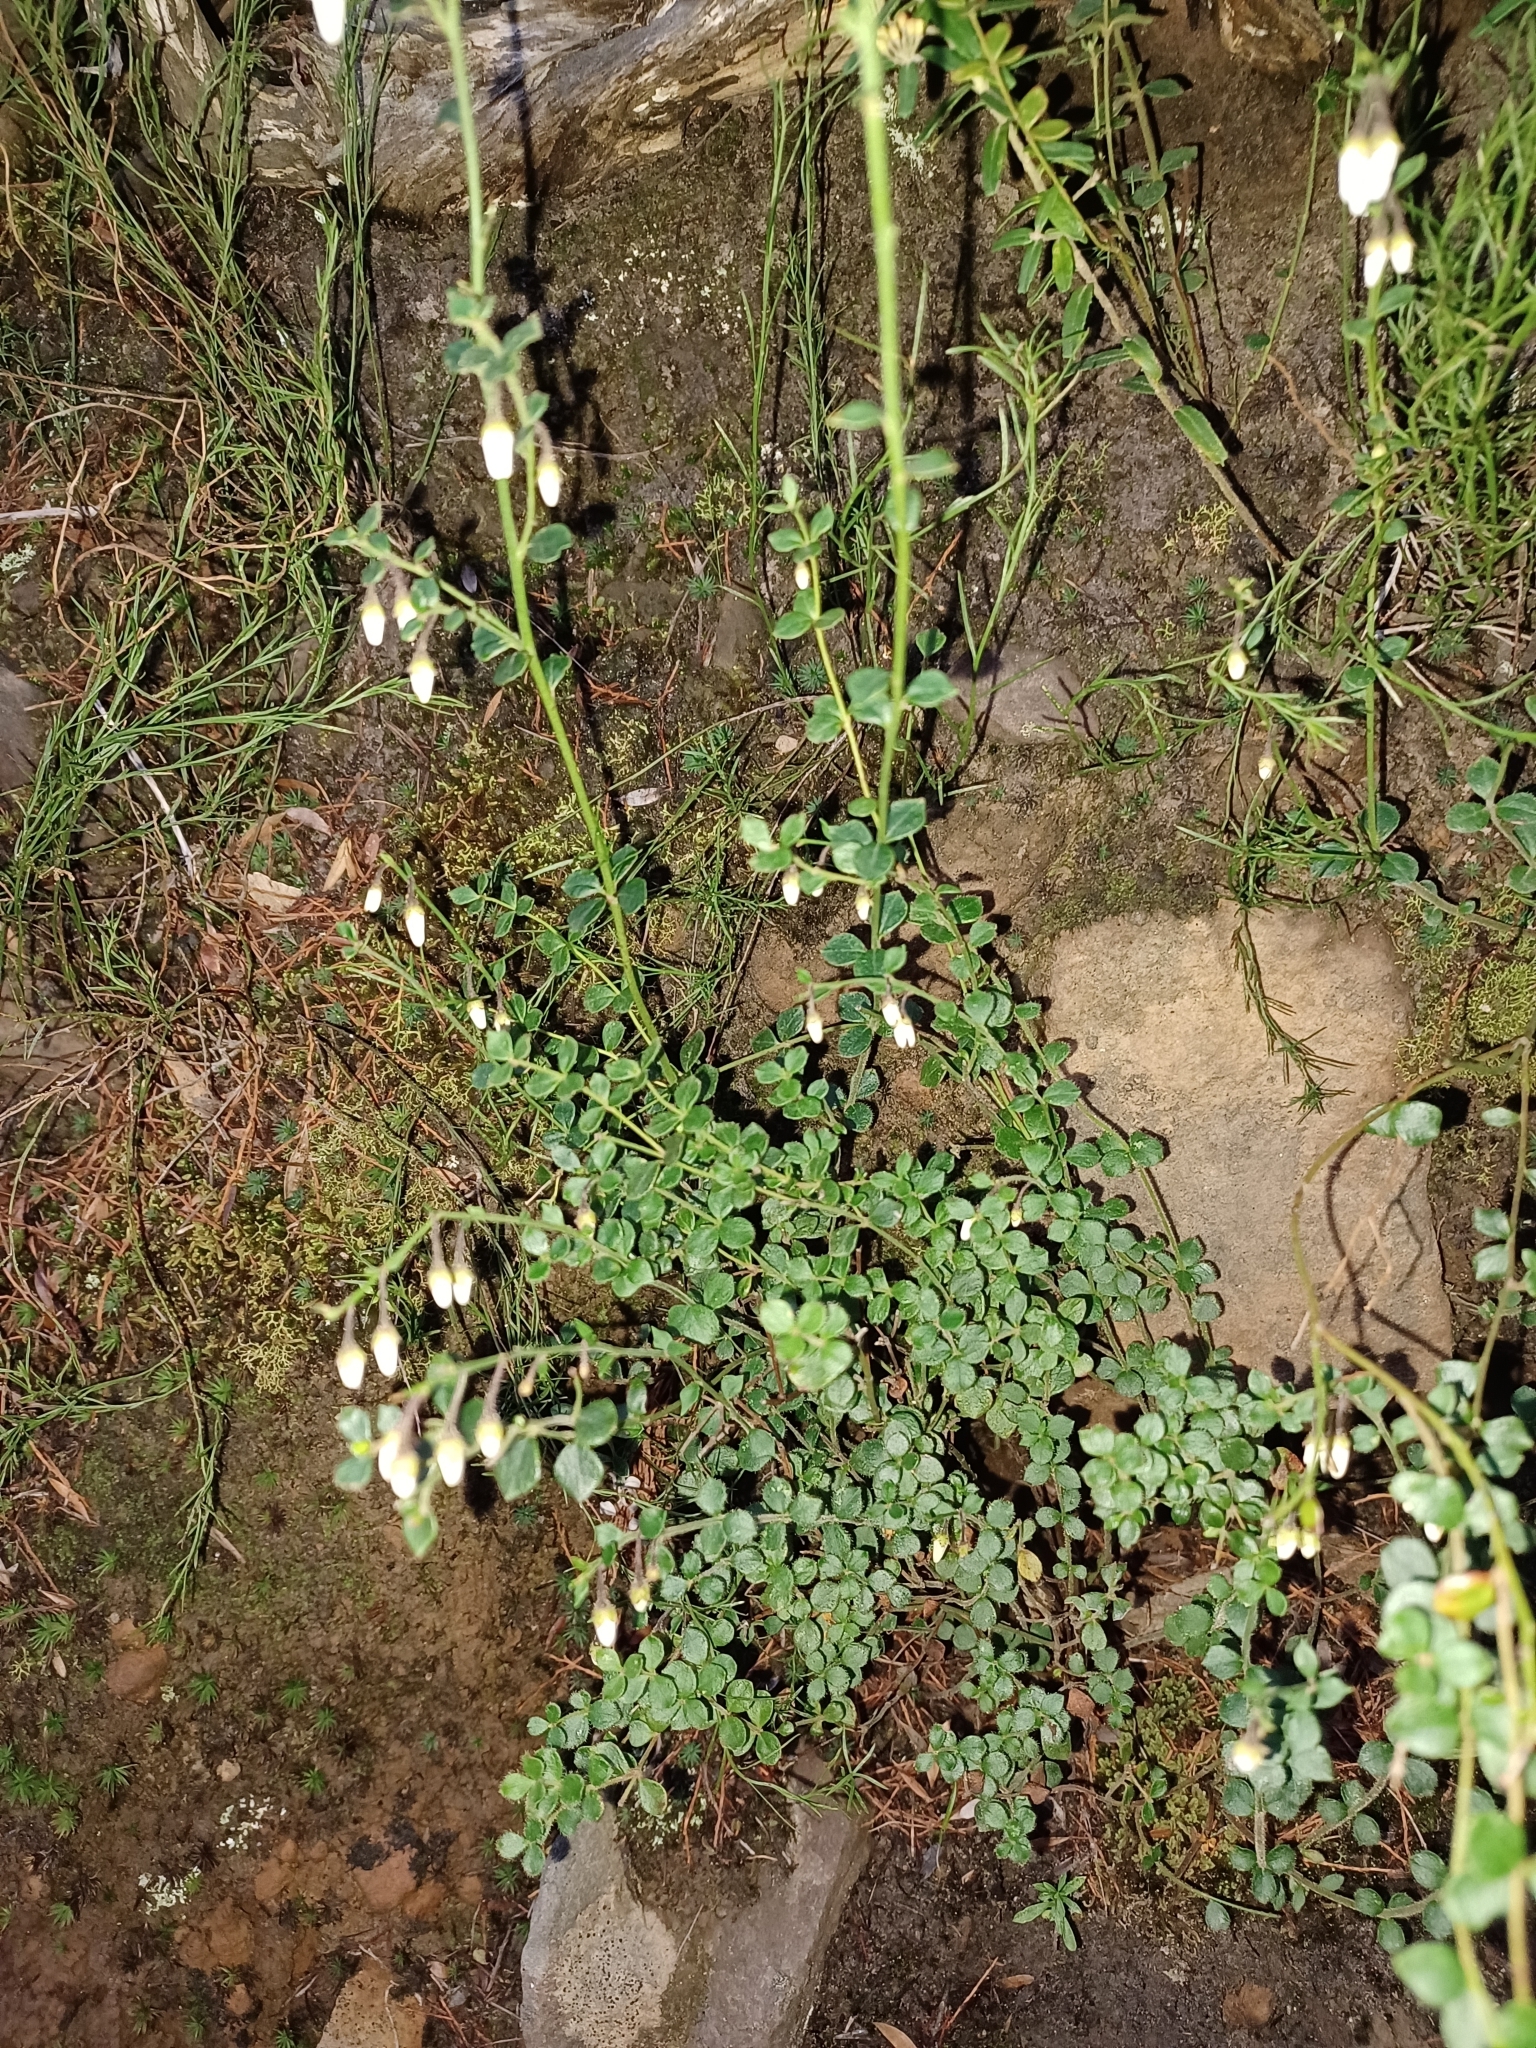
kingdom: Plantae
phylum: Tracheophyta
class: Magnoliopsida
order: Oxalidales
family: Elaeocarpaceae
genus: Tetratheca
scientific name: Tetratheca ciliata
